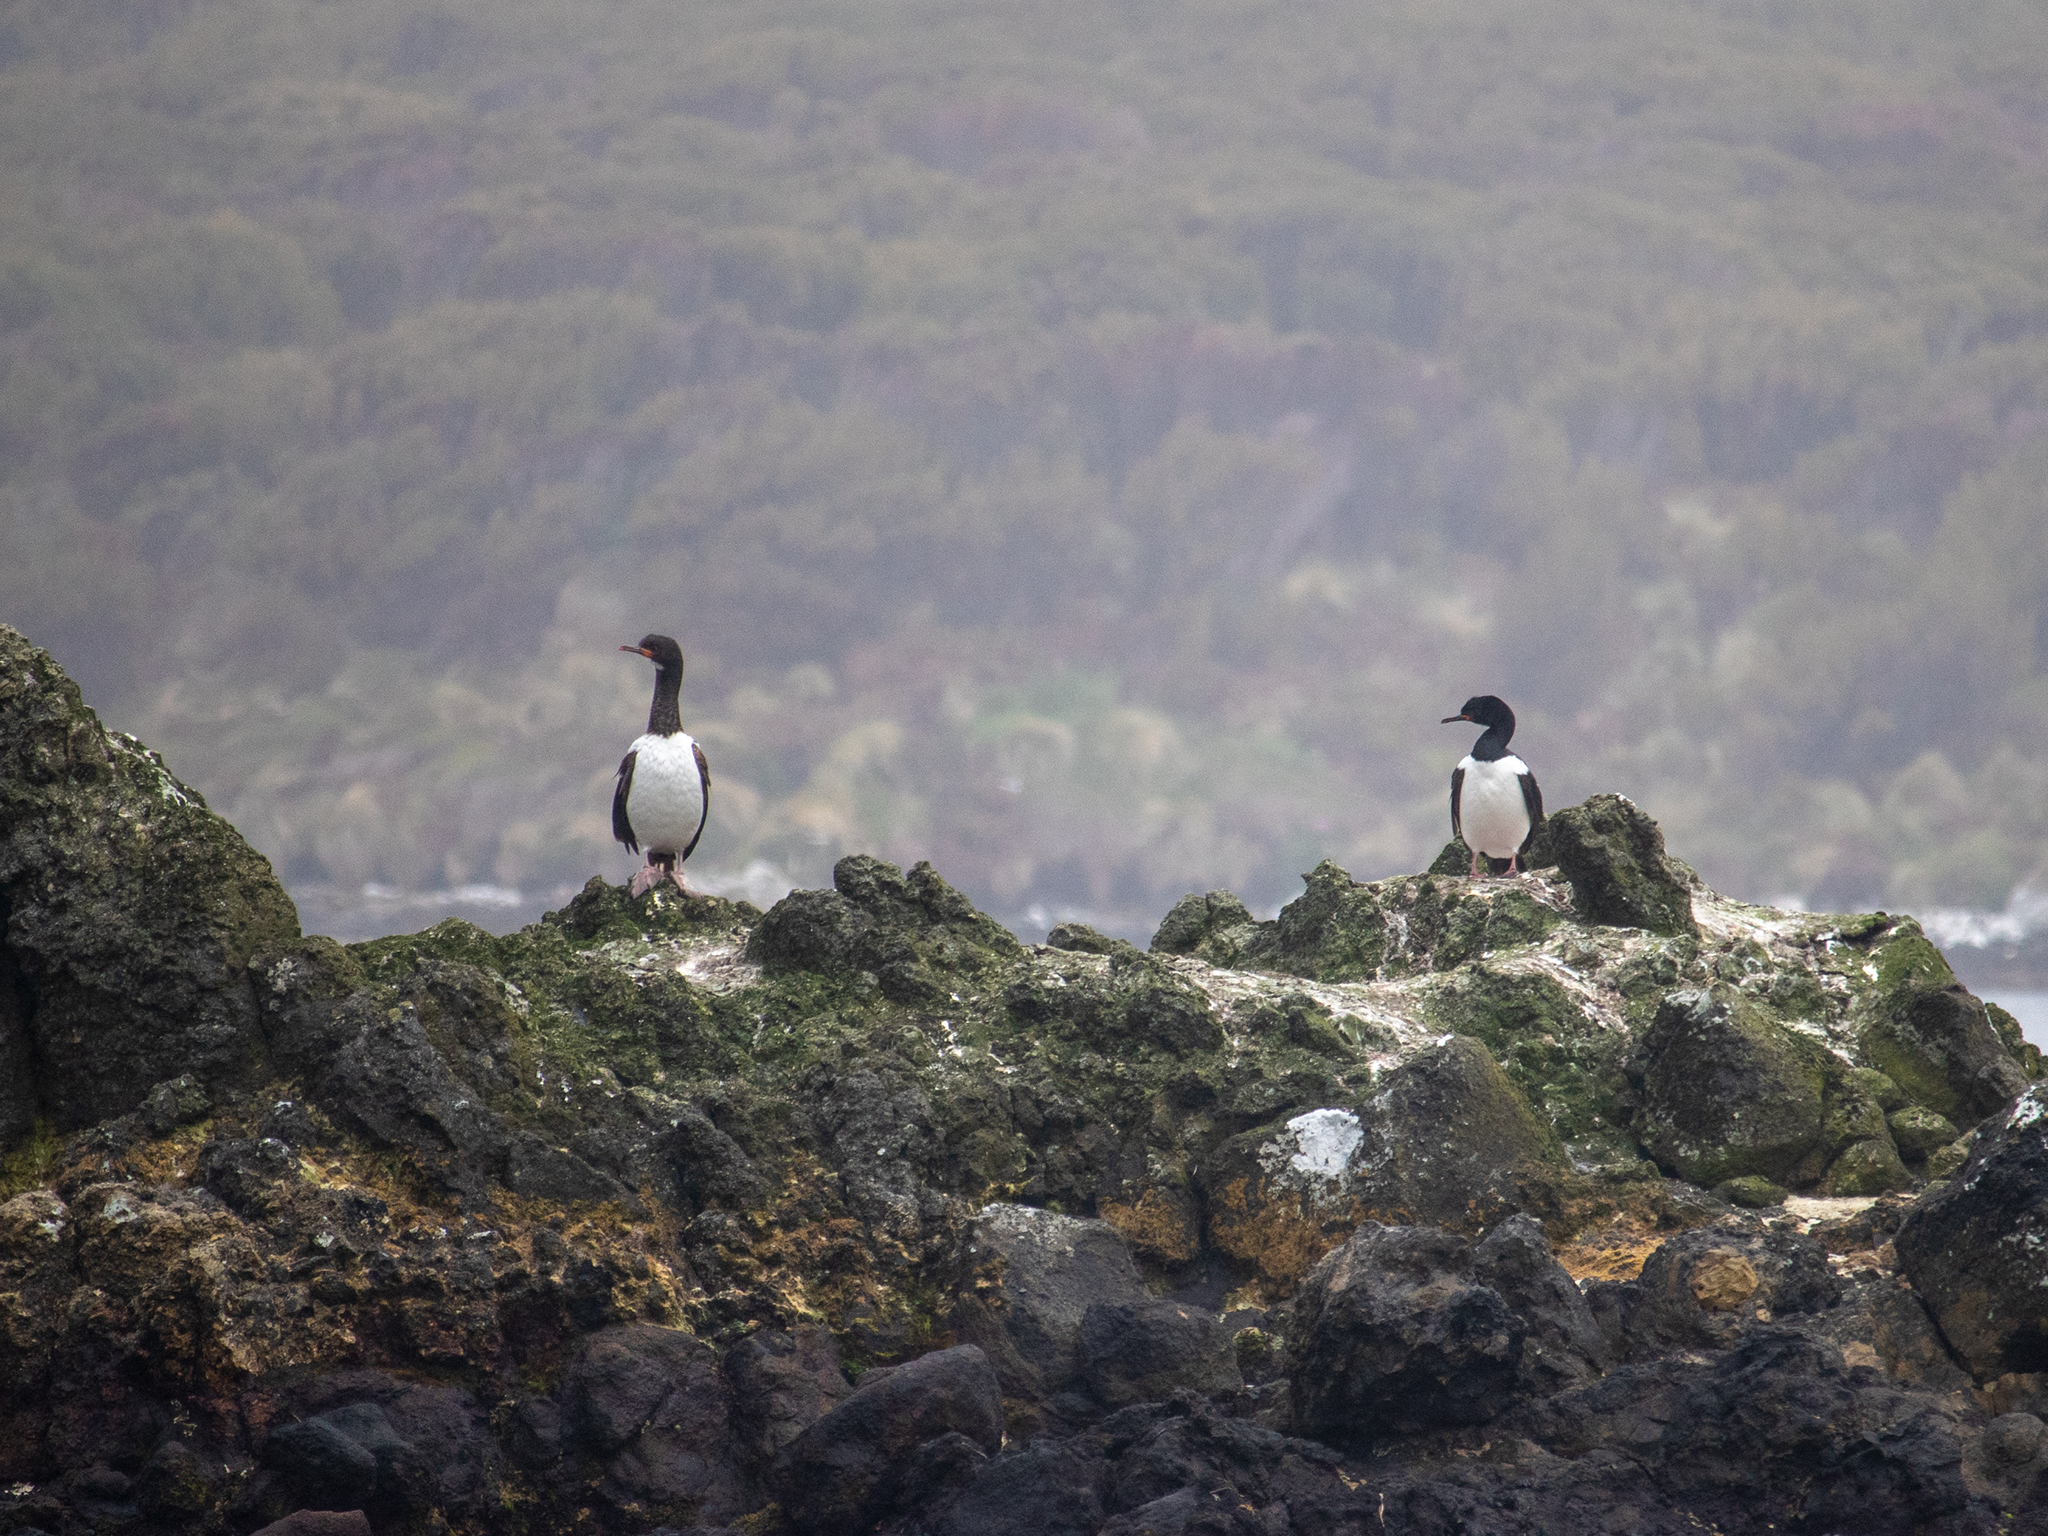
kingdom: Animalia
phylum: Chordata
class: Aves
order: Suliformes
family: Phalacrocoracidae
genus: Leucocarbo
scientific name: Leucocarbo campbelli
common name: Campbell shag
